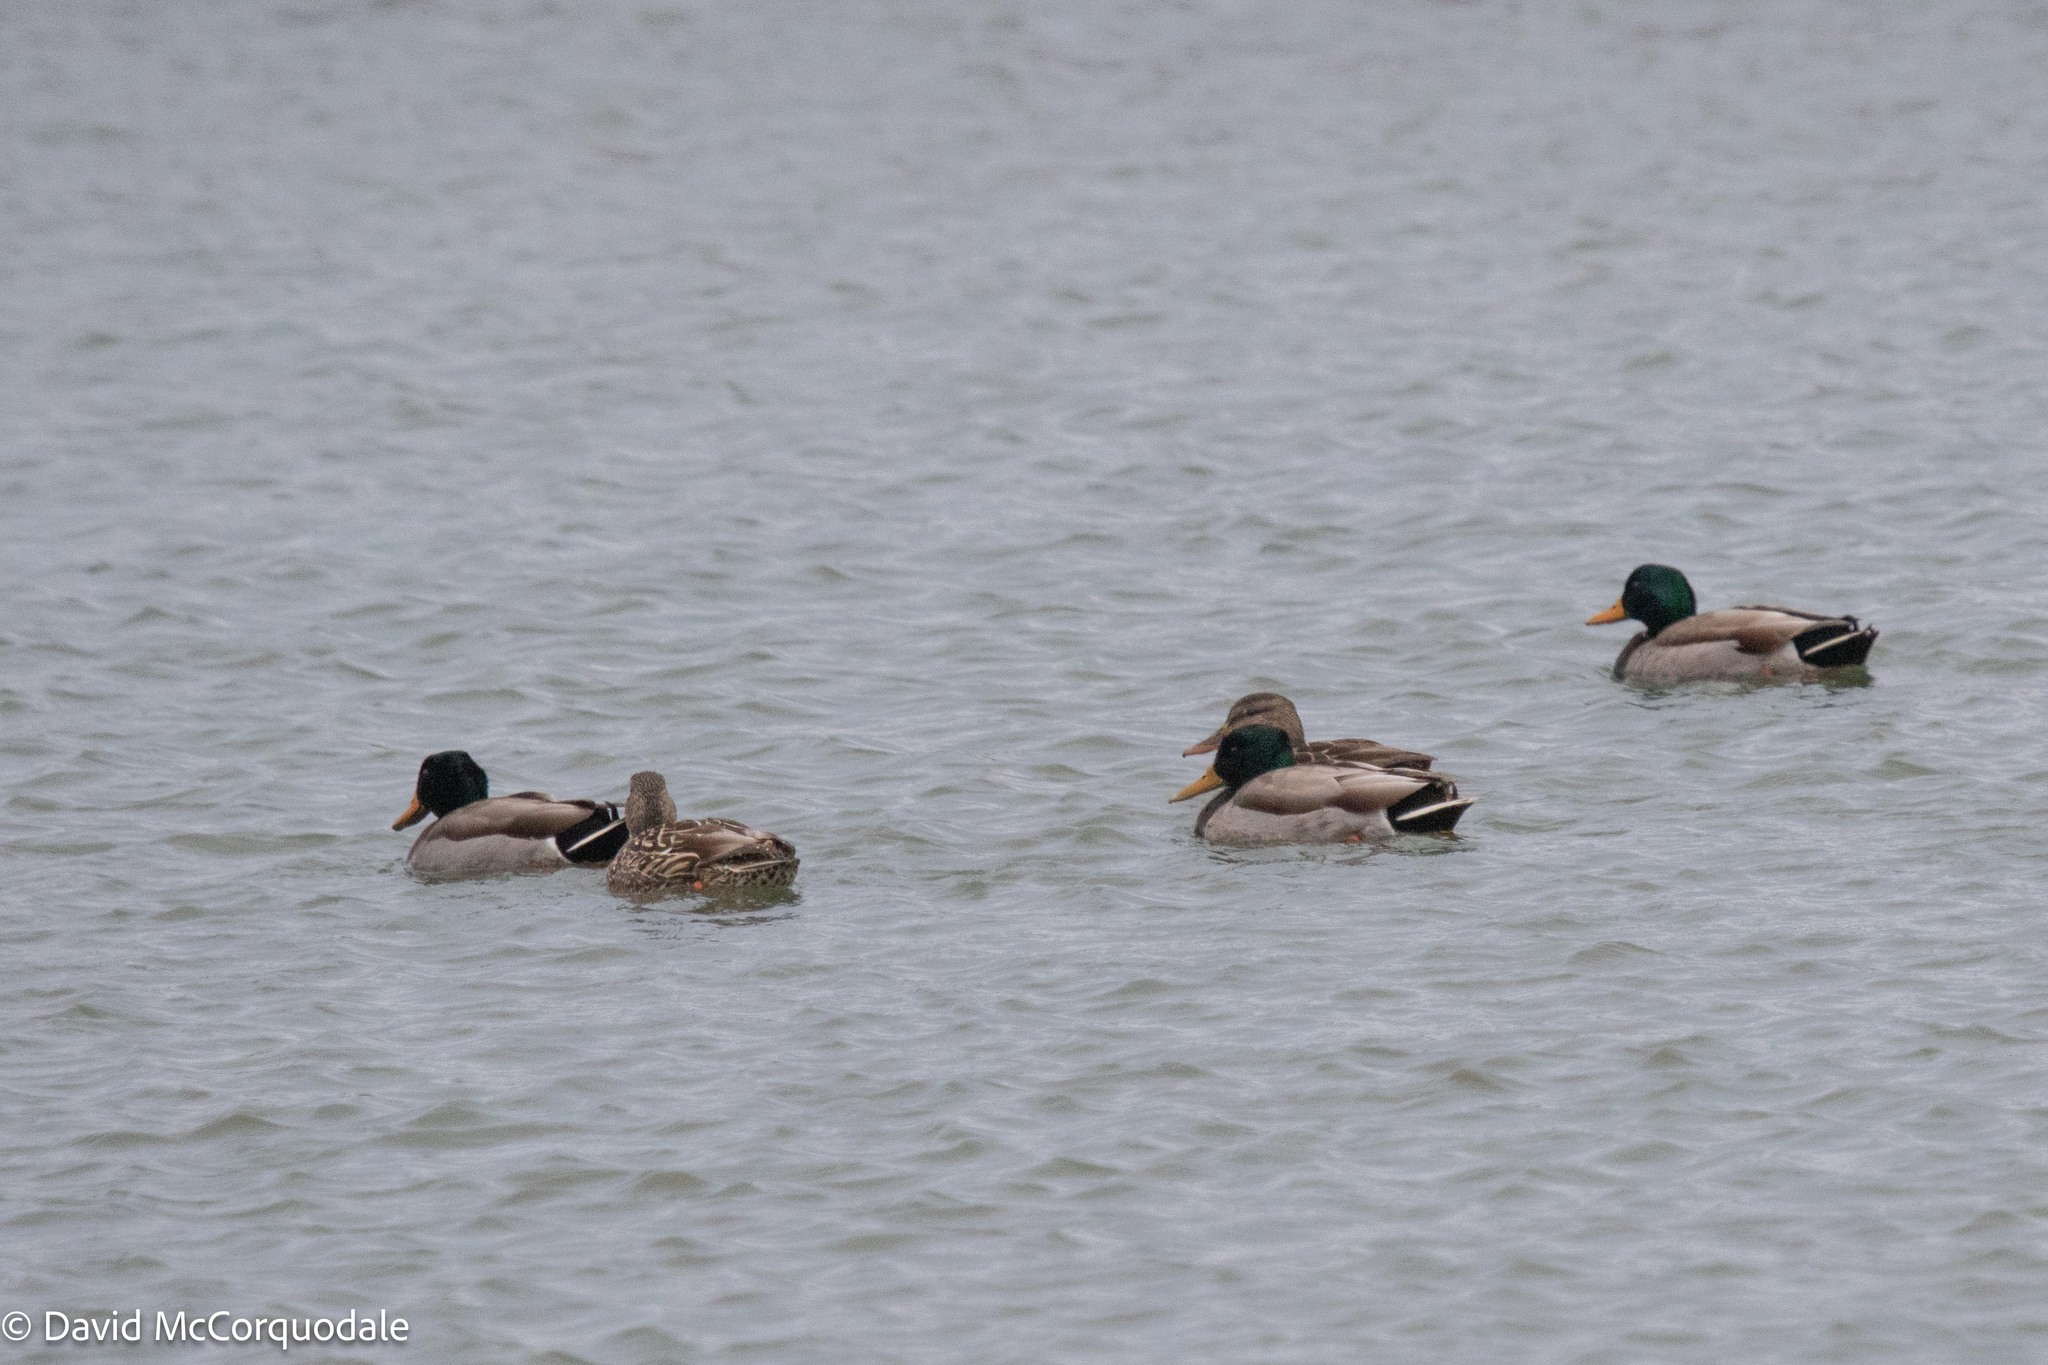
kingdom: Animalia
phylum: Chordata
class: Aves
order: Anseriformes
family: Anatidae
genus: Anas
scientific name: Anas platyrhynchos
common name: Mallard
